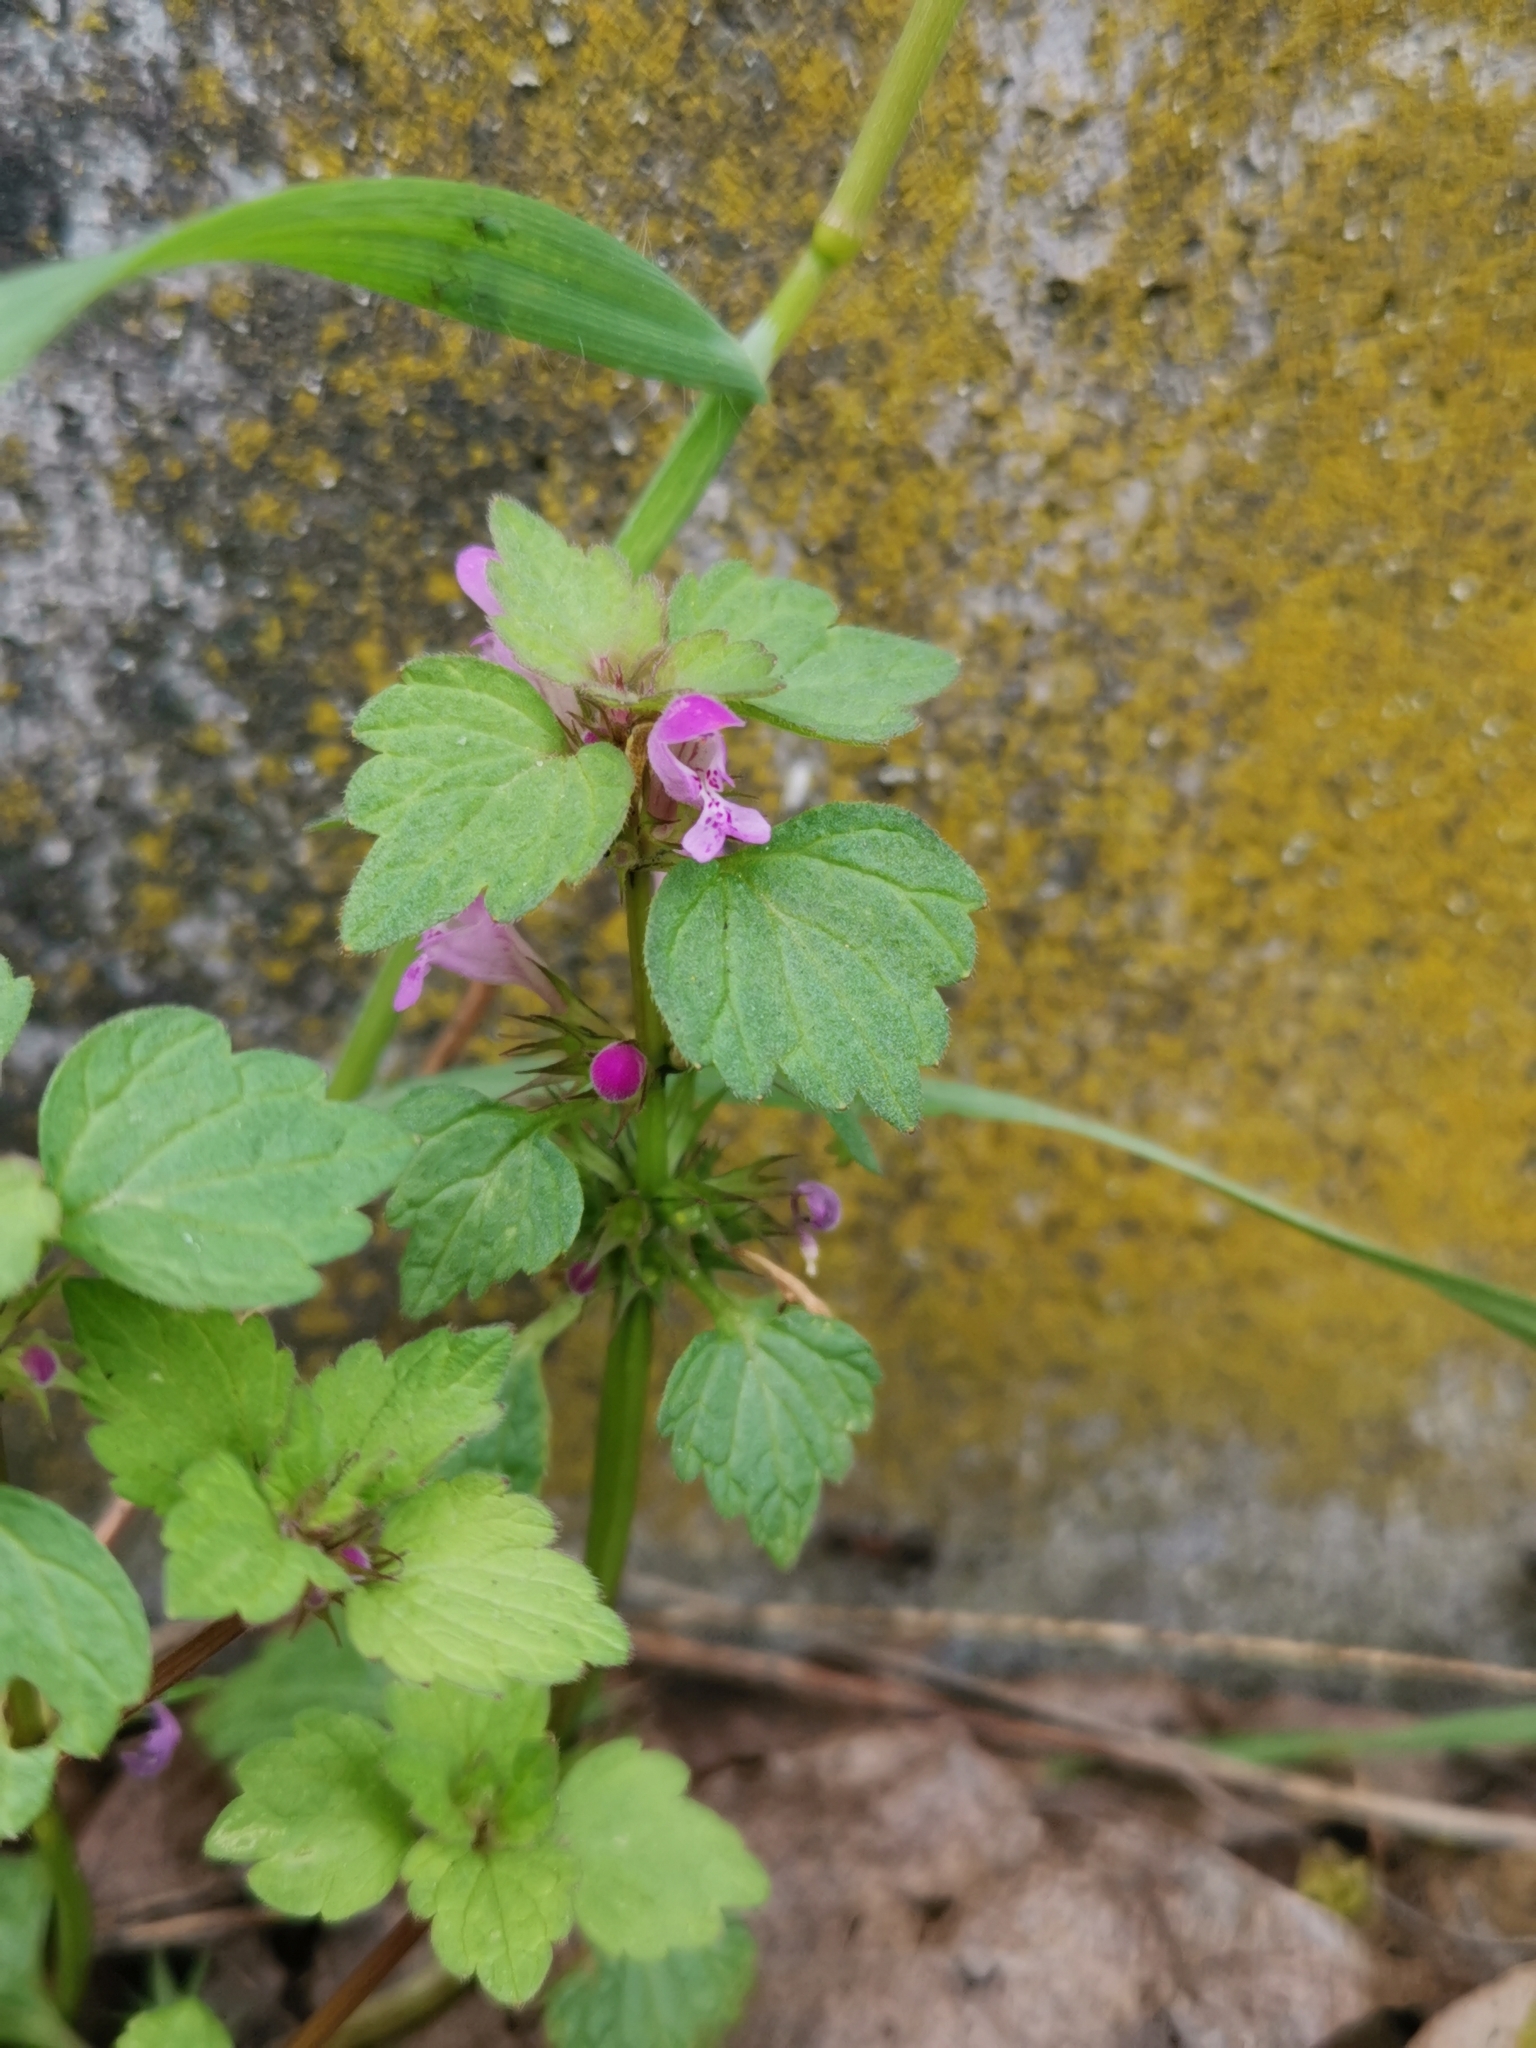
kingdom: Plantae
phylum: Tracheophyta
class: Magnoliopsida
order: Lamiales
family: Lamiaceae
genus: Lamium
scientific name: Lamium purpureum
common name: Red dead-nettle
